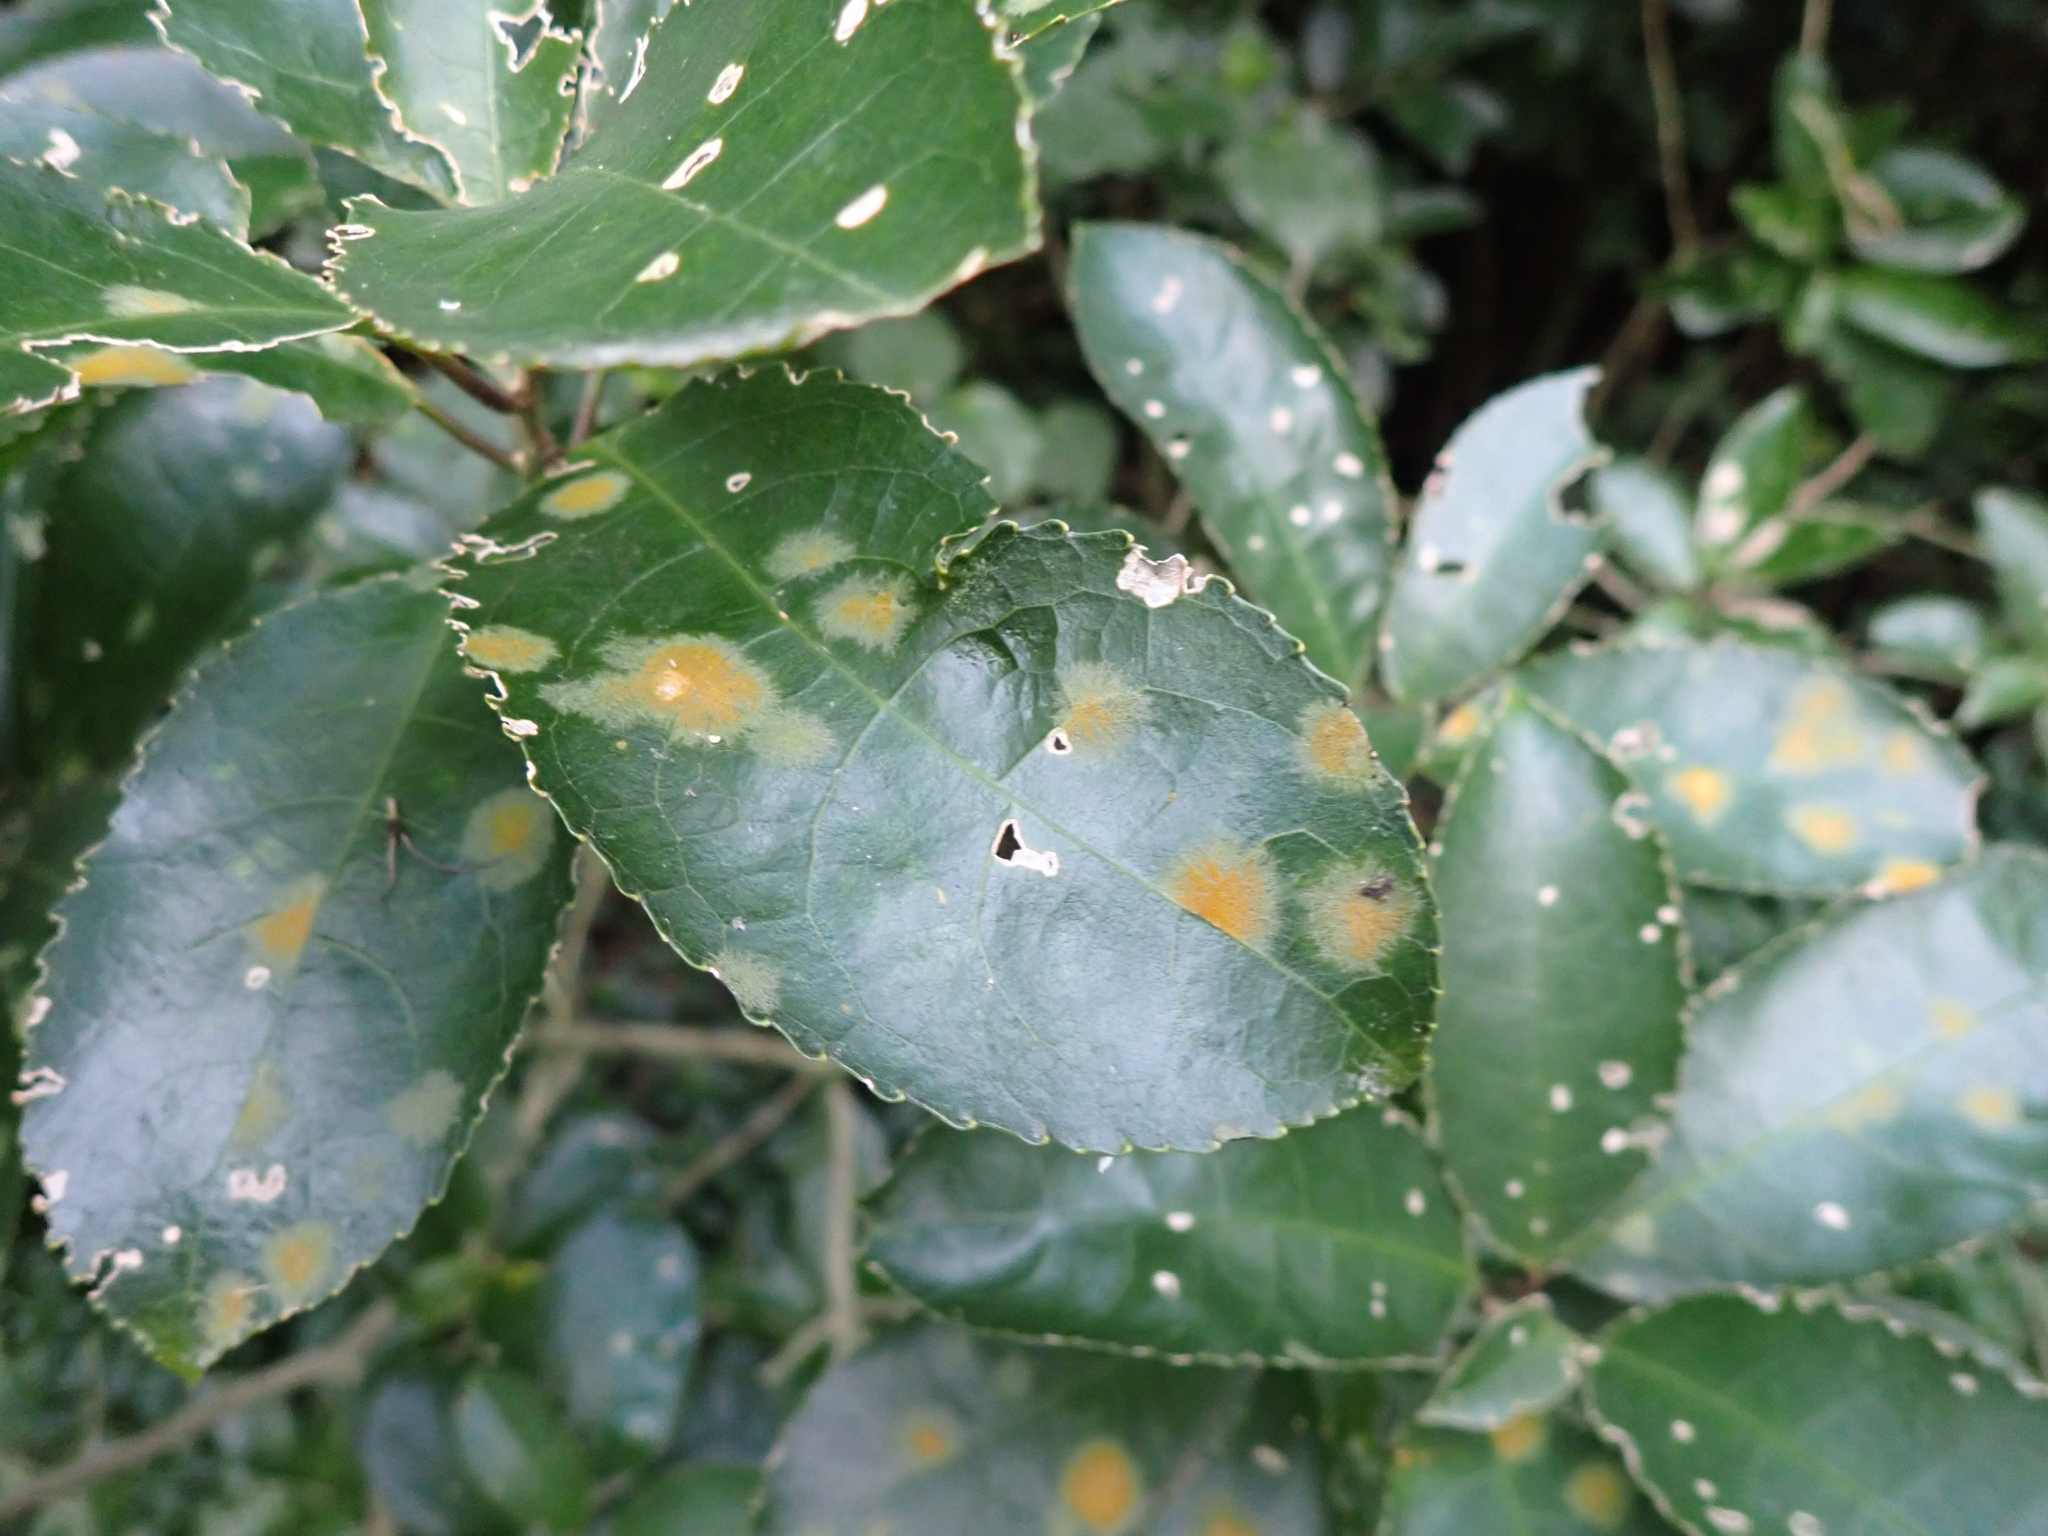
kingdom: Plantae
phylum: Chlorophyta
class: Ulvophyceae
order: Trentepohliales
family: Trentepohliaceae
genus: Cephaleuros
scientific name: Cephaleuros
